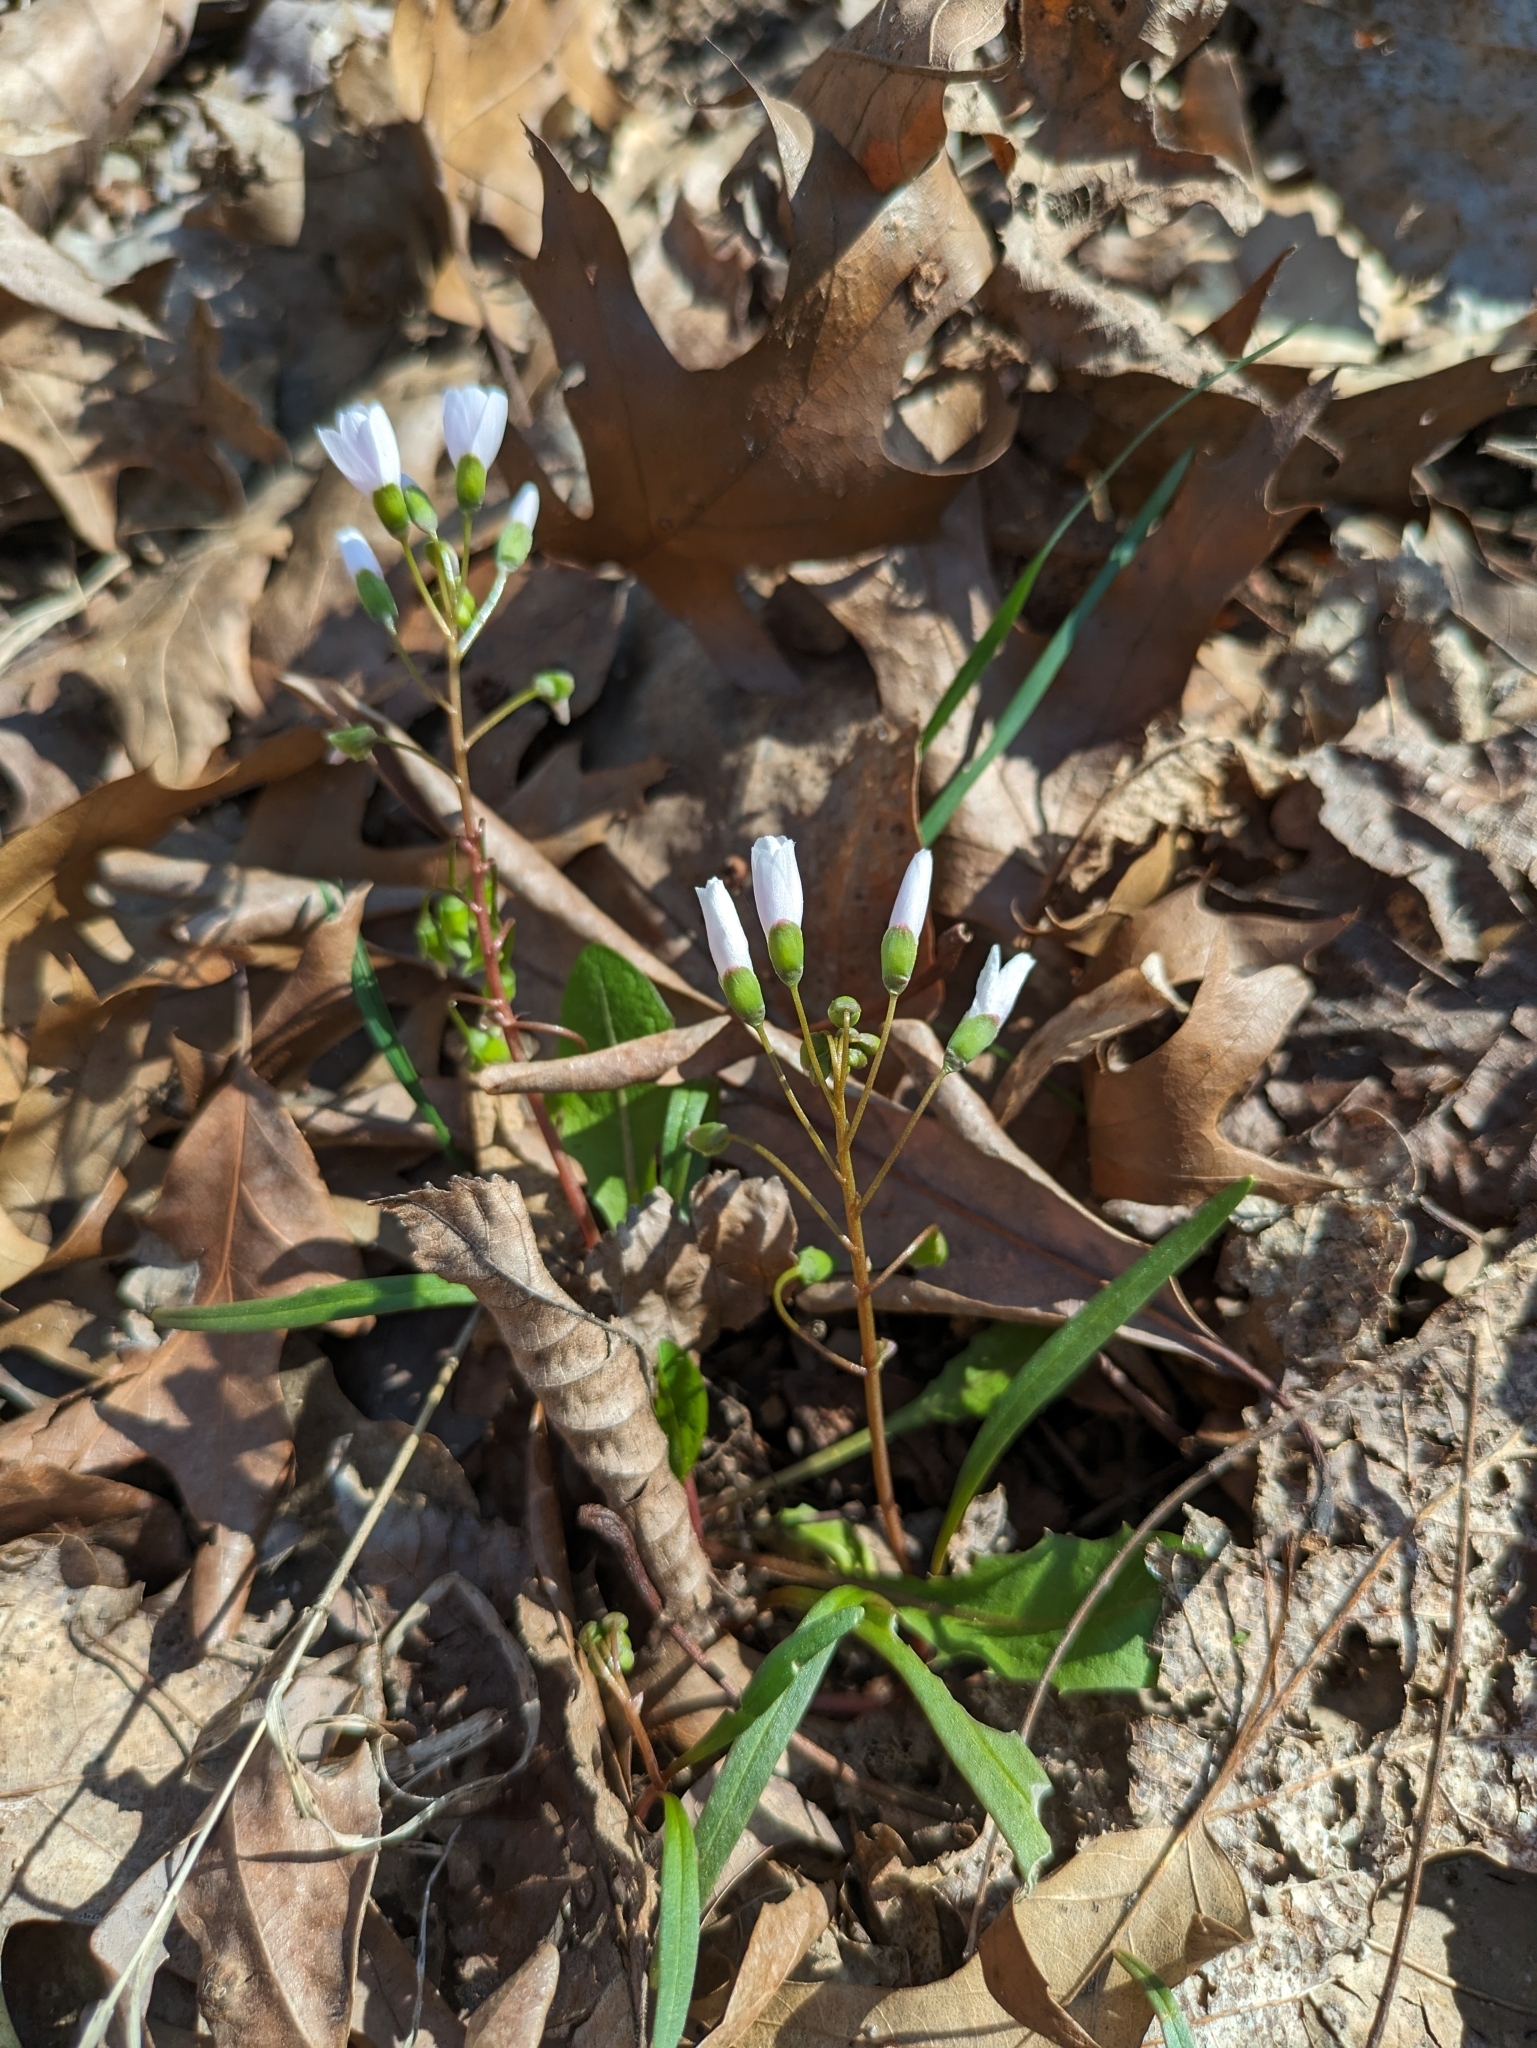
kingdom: Plantae
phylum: Tracheophyta
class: Magnoliopsida
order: Caryophyllales
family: Montiaceae
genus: Claytonia
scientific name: Claytonia virginica
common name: Virginia springbeauty
